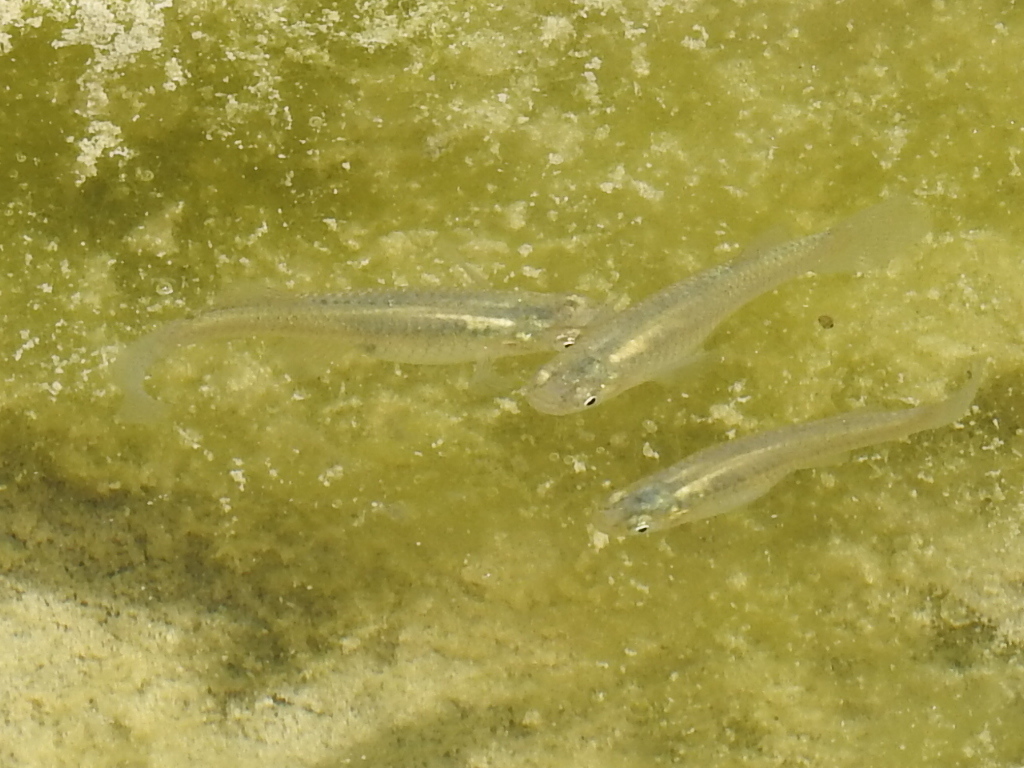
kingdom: Animalia
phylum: Chordata
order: Cyprinodontiformes
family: Poeciliidae
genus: Gambusia
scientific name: Gambusia affinis
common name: Mosquitofish
